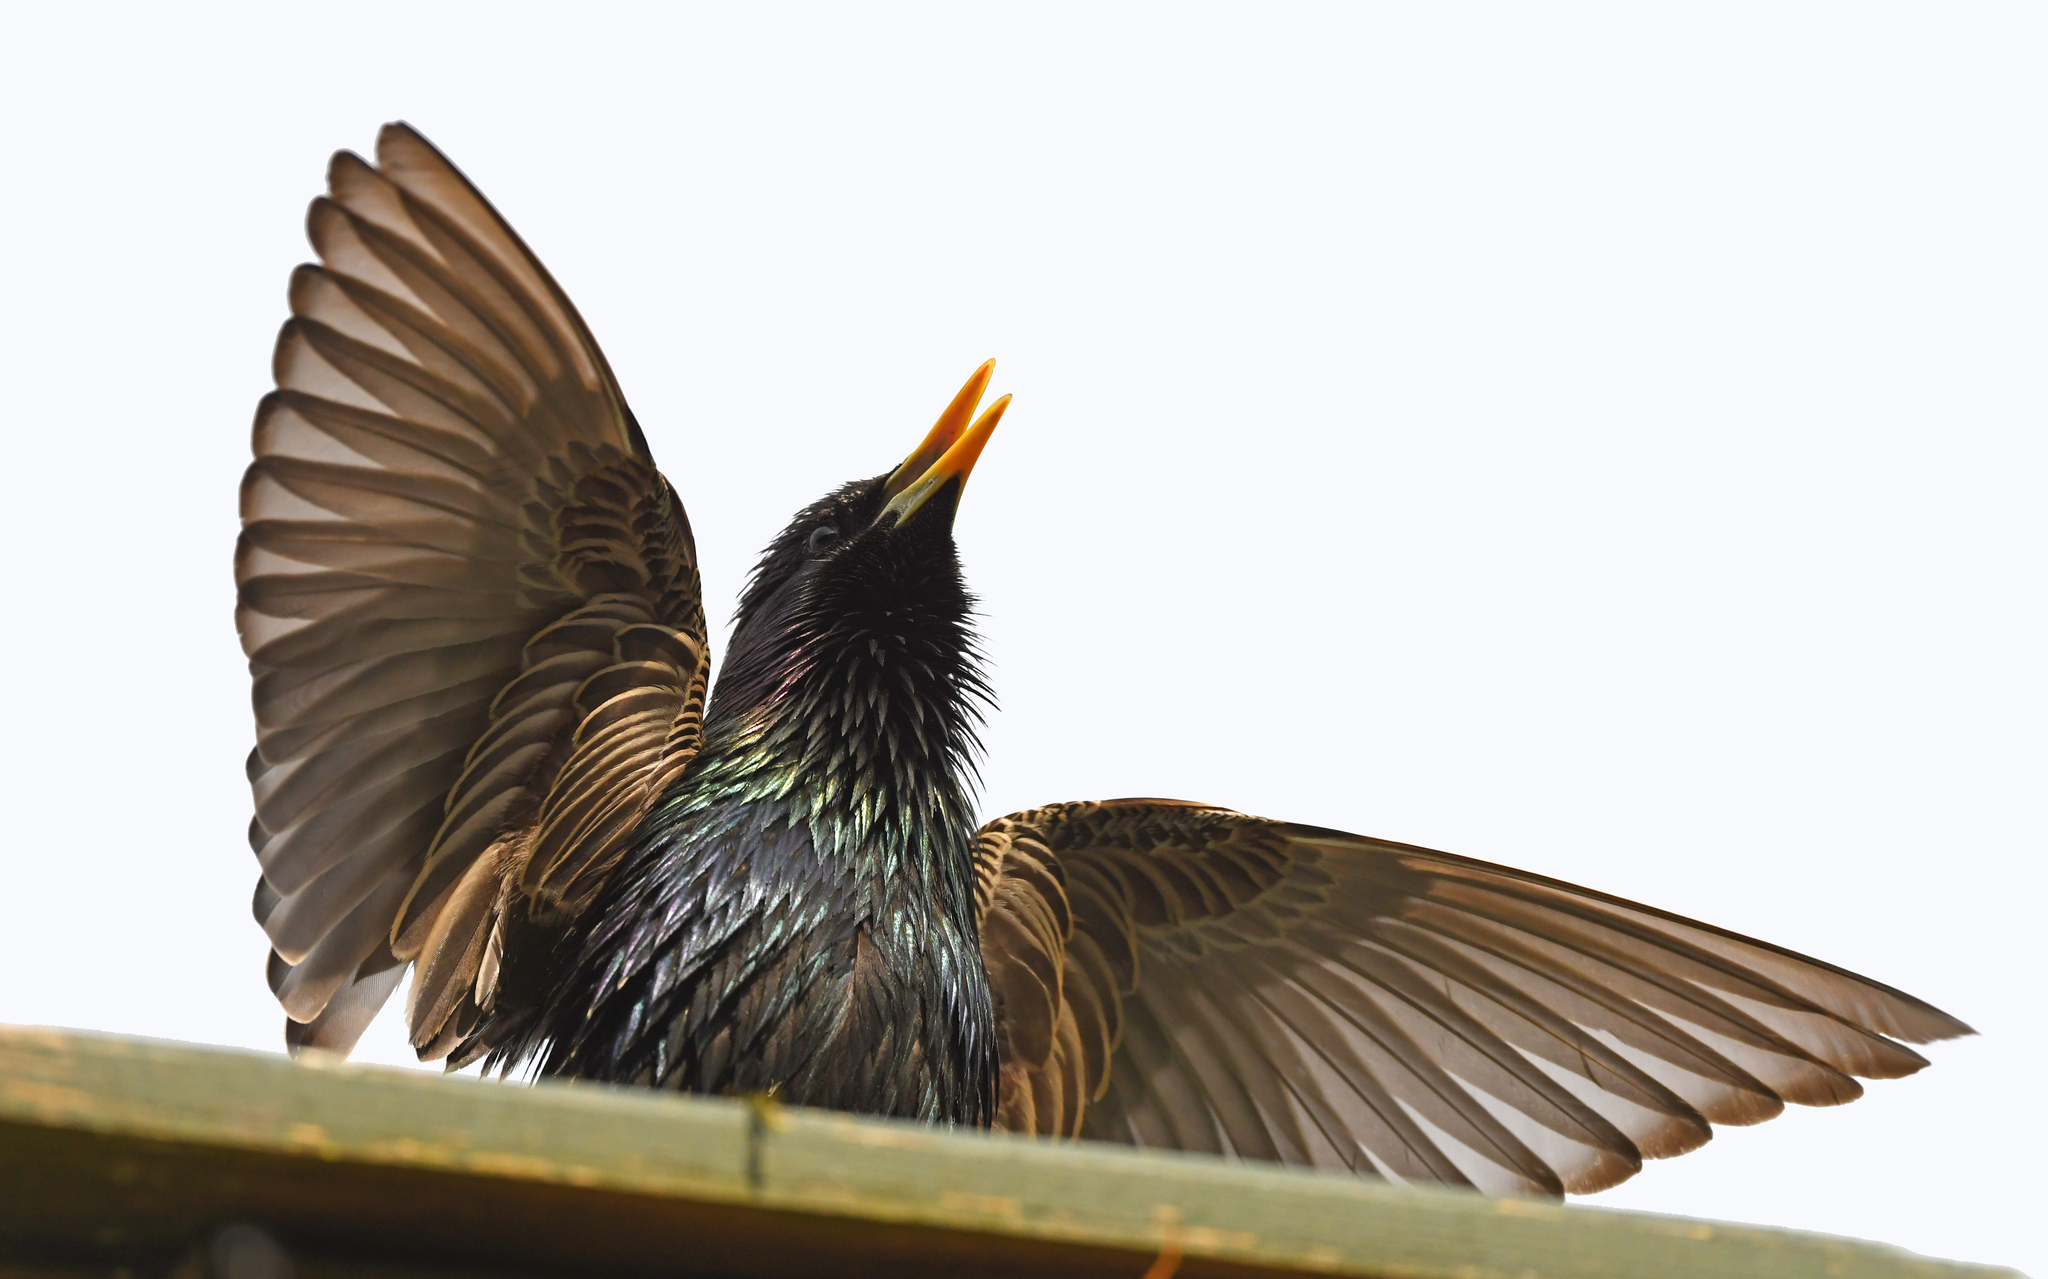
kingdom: Animalia
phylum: Chordata
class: Aves
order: Passeriformes
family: Sturnidae
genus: Sturnus
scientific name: Sturnus vulgaris
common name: Common starling
